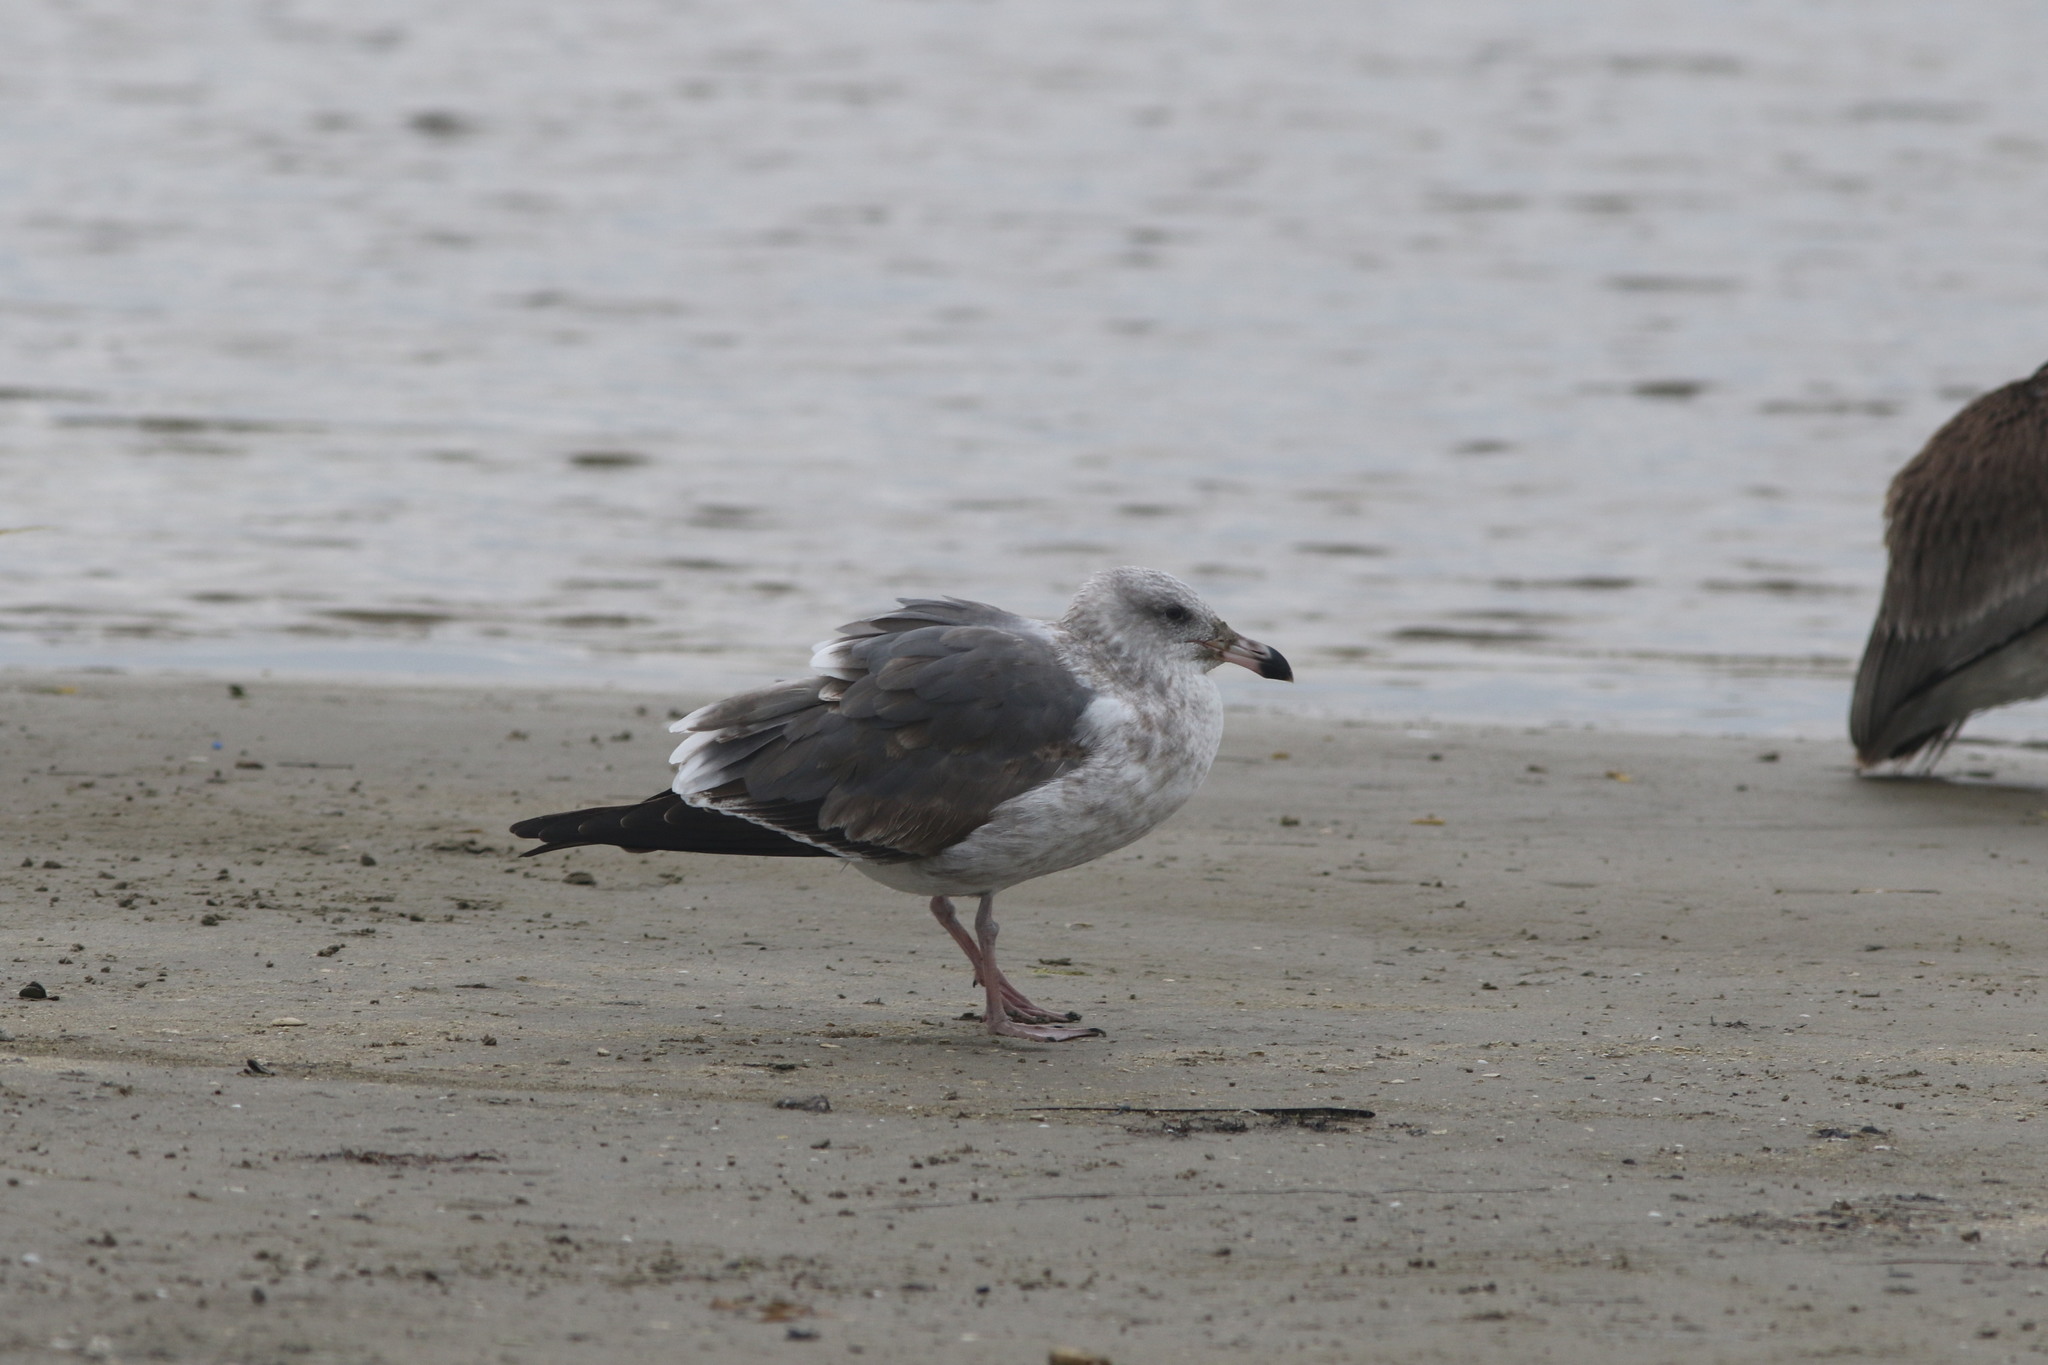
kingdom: Animalia
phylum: Chordata
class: Aves
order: Charadriiformes
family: Laridae
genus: Larus
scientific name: Larus occidentalis
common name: Western gull
